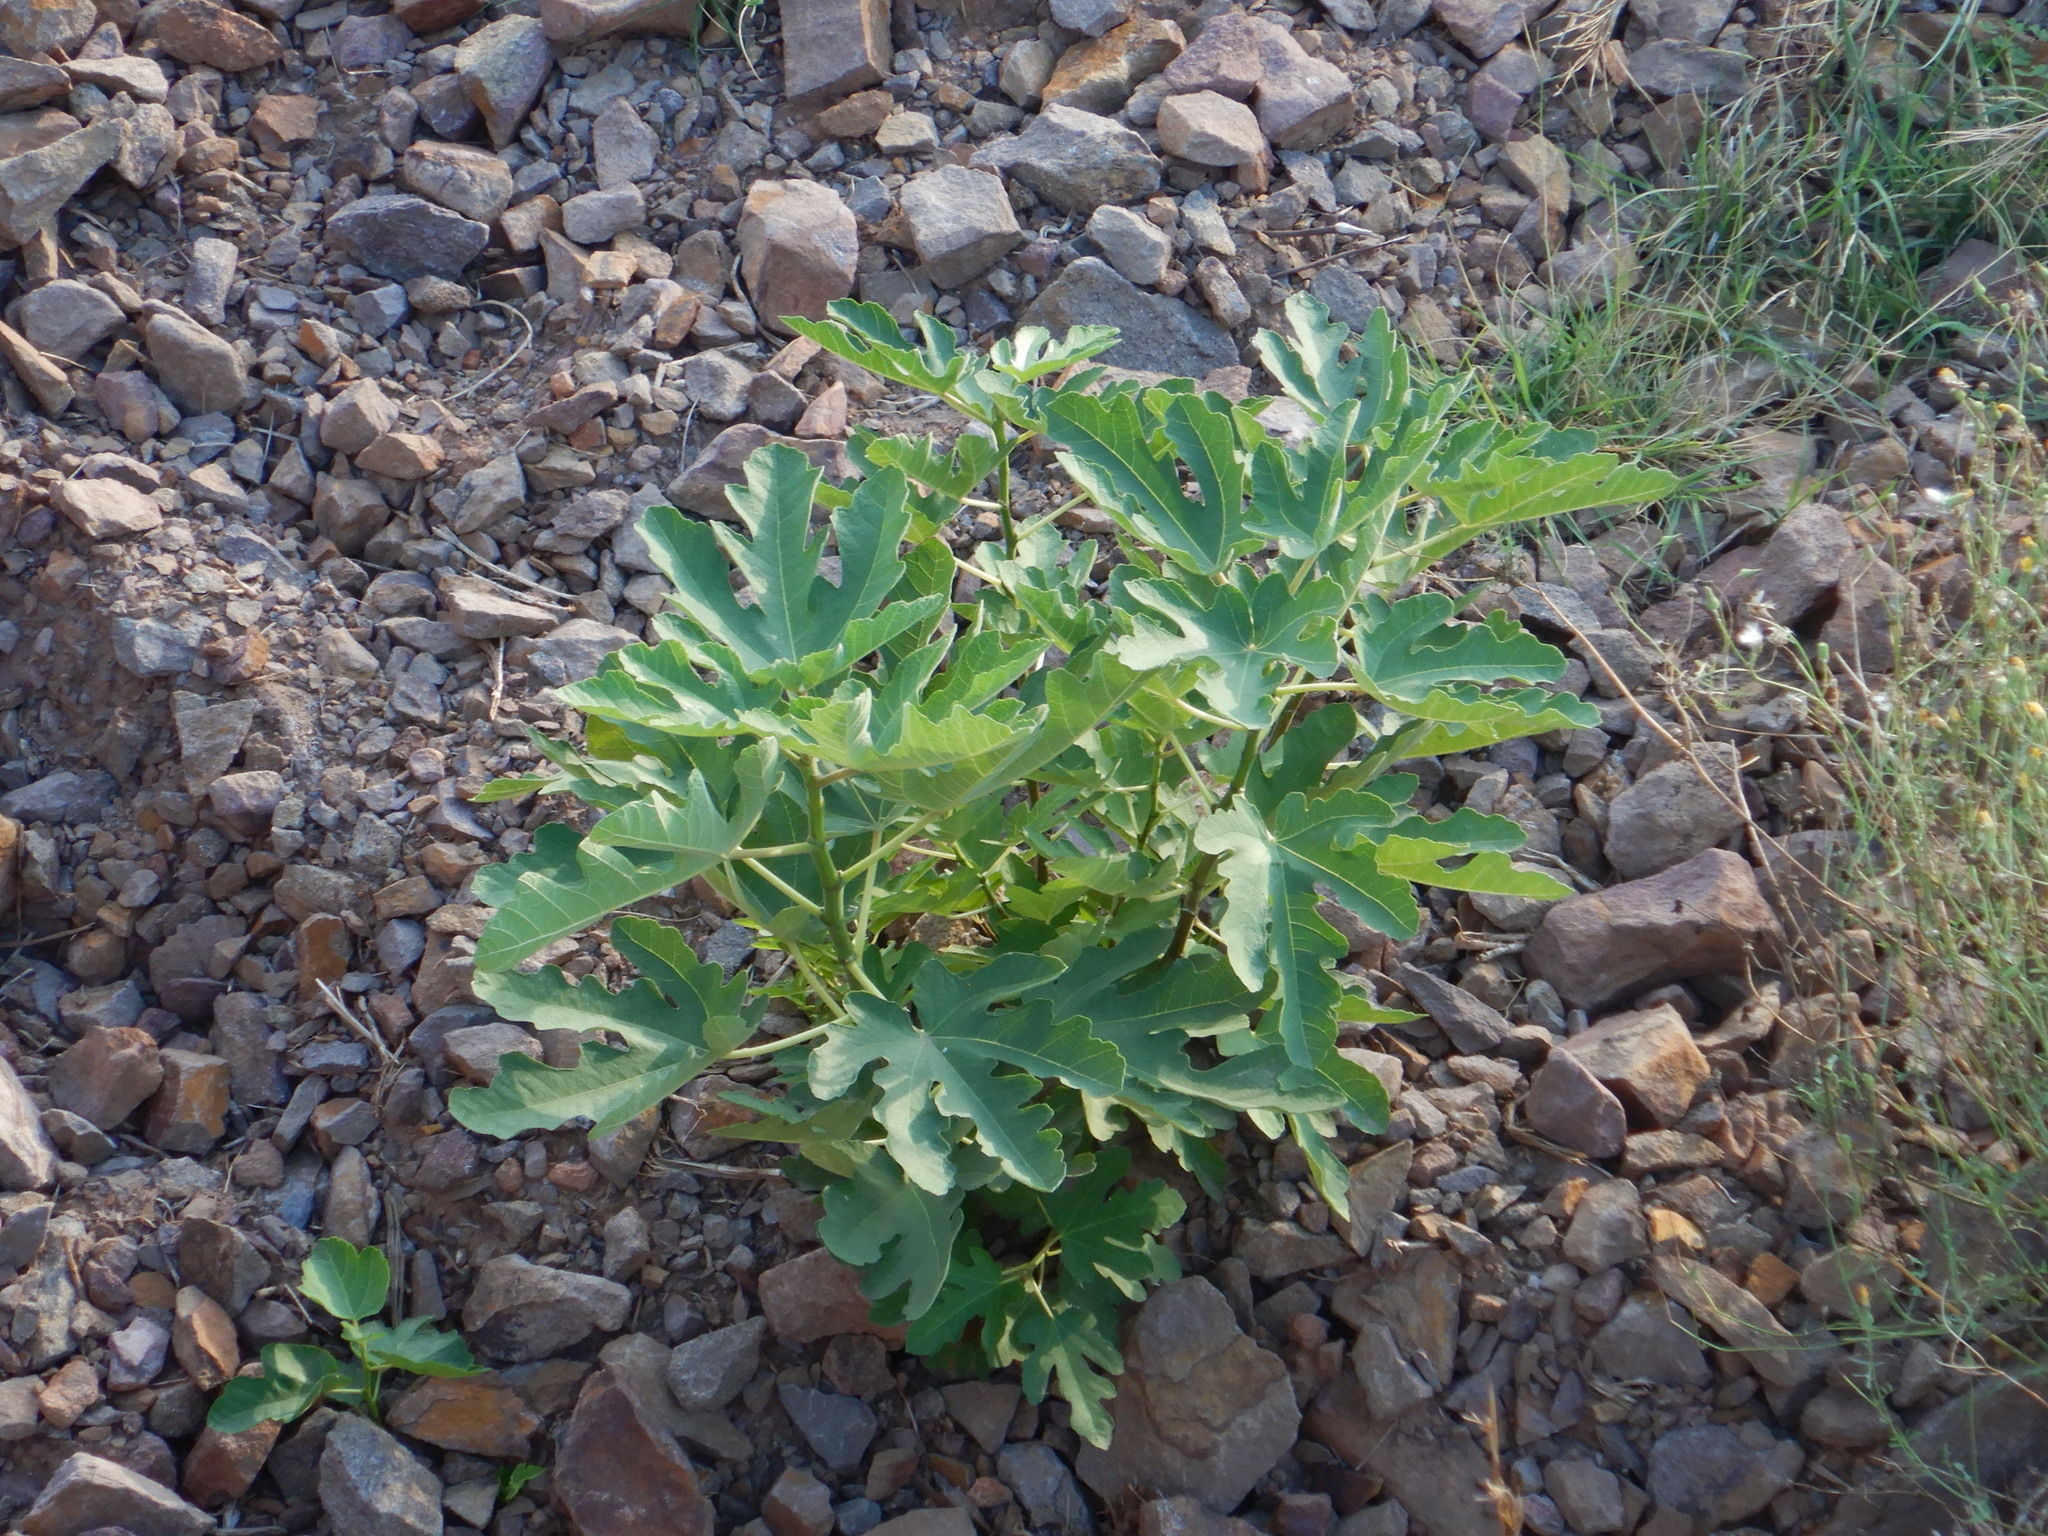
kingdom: Plantae
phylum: Tracheophyta
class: Magnoliopsida
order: Rosales
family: Moraceae
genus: Ficus
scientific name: Ficus carica
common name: Fig
